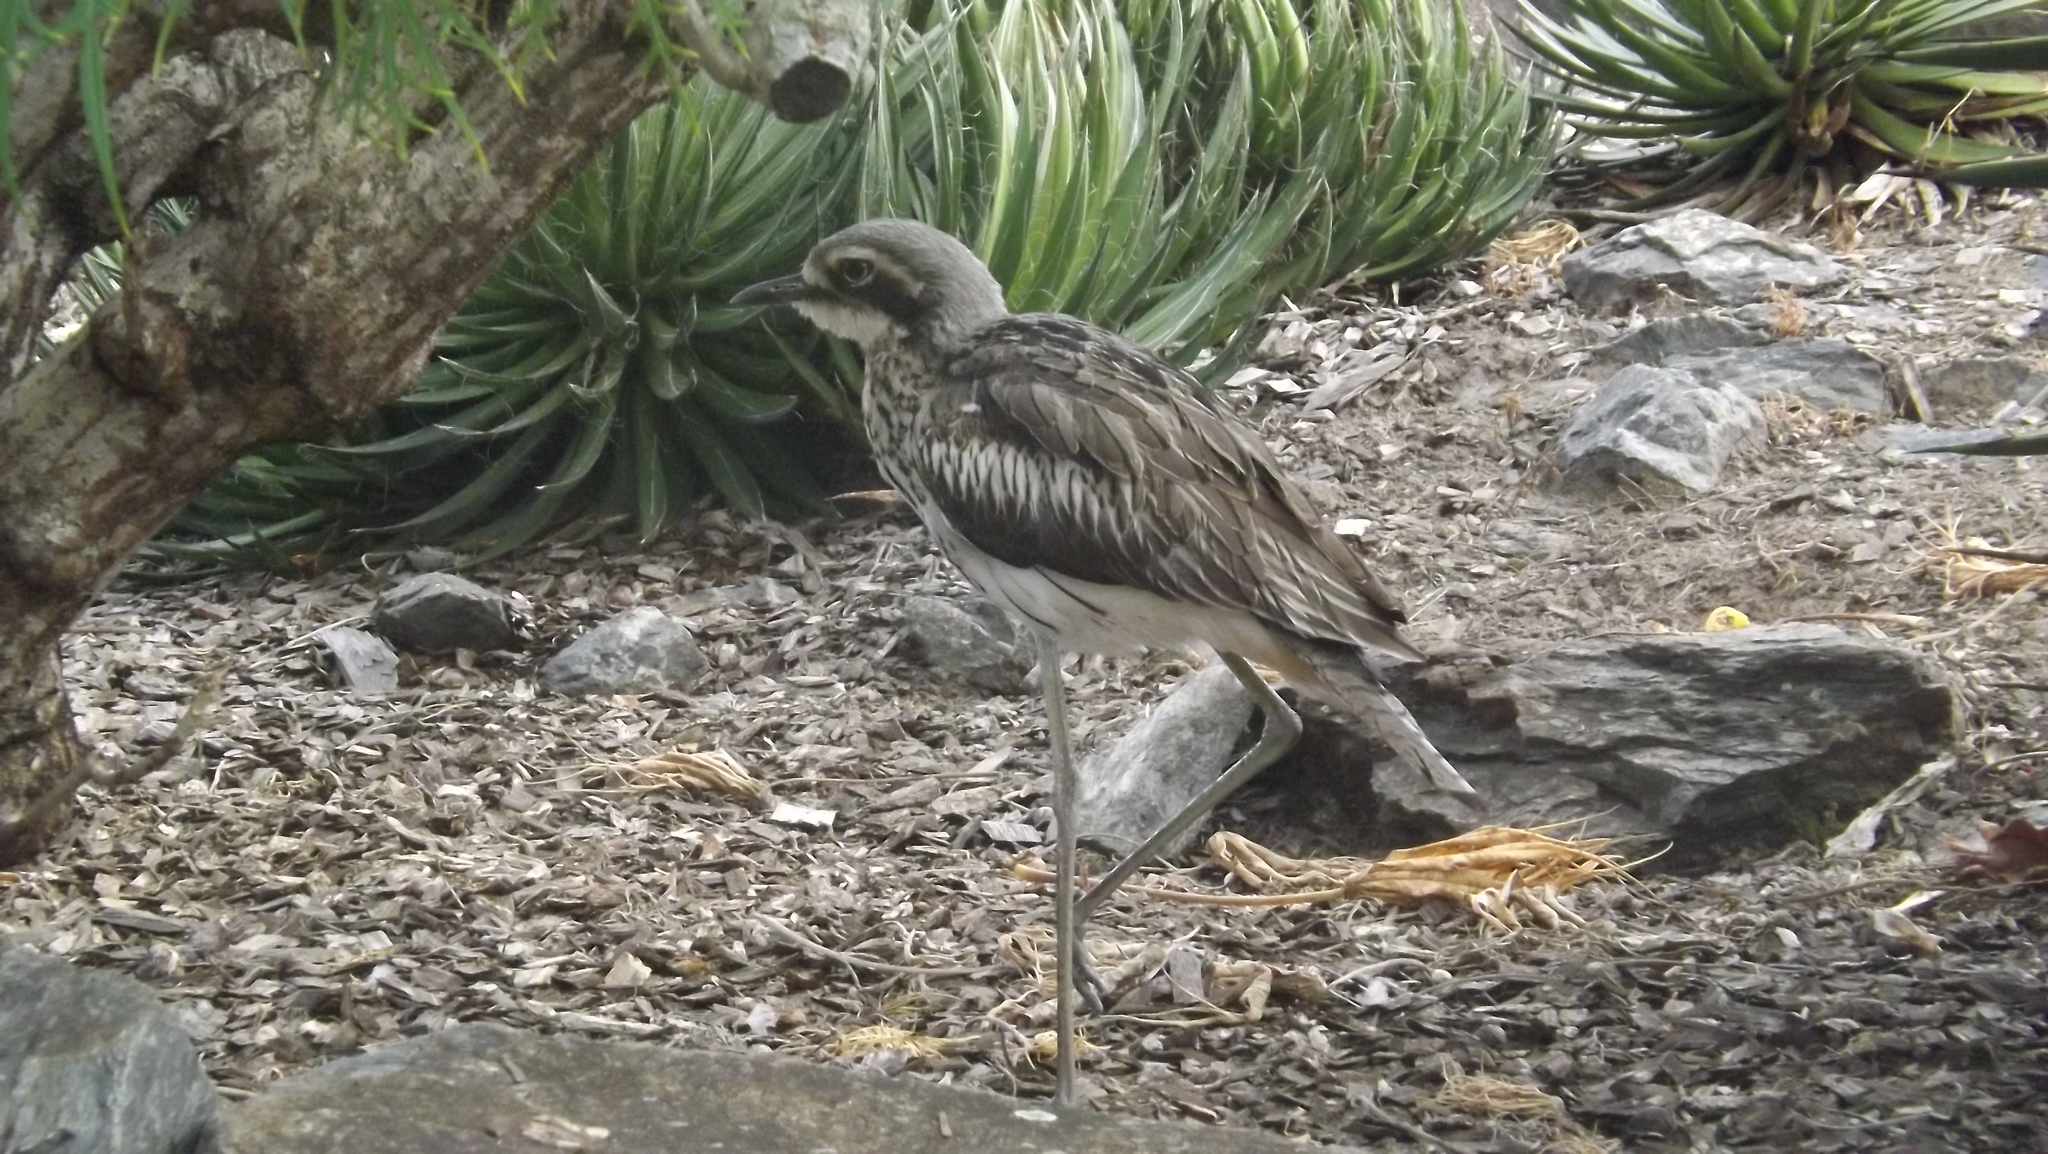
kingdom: Animalia
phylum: Chordata
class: Aves
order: Charadriiformes
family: Burhinidae
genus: Burhinus
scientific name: Burhinus grallarius
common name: Bush stone-curlew
